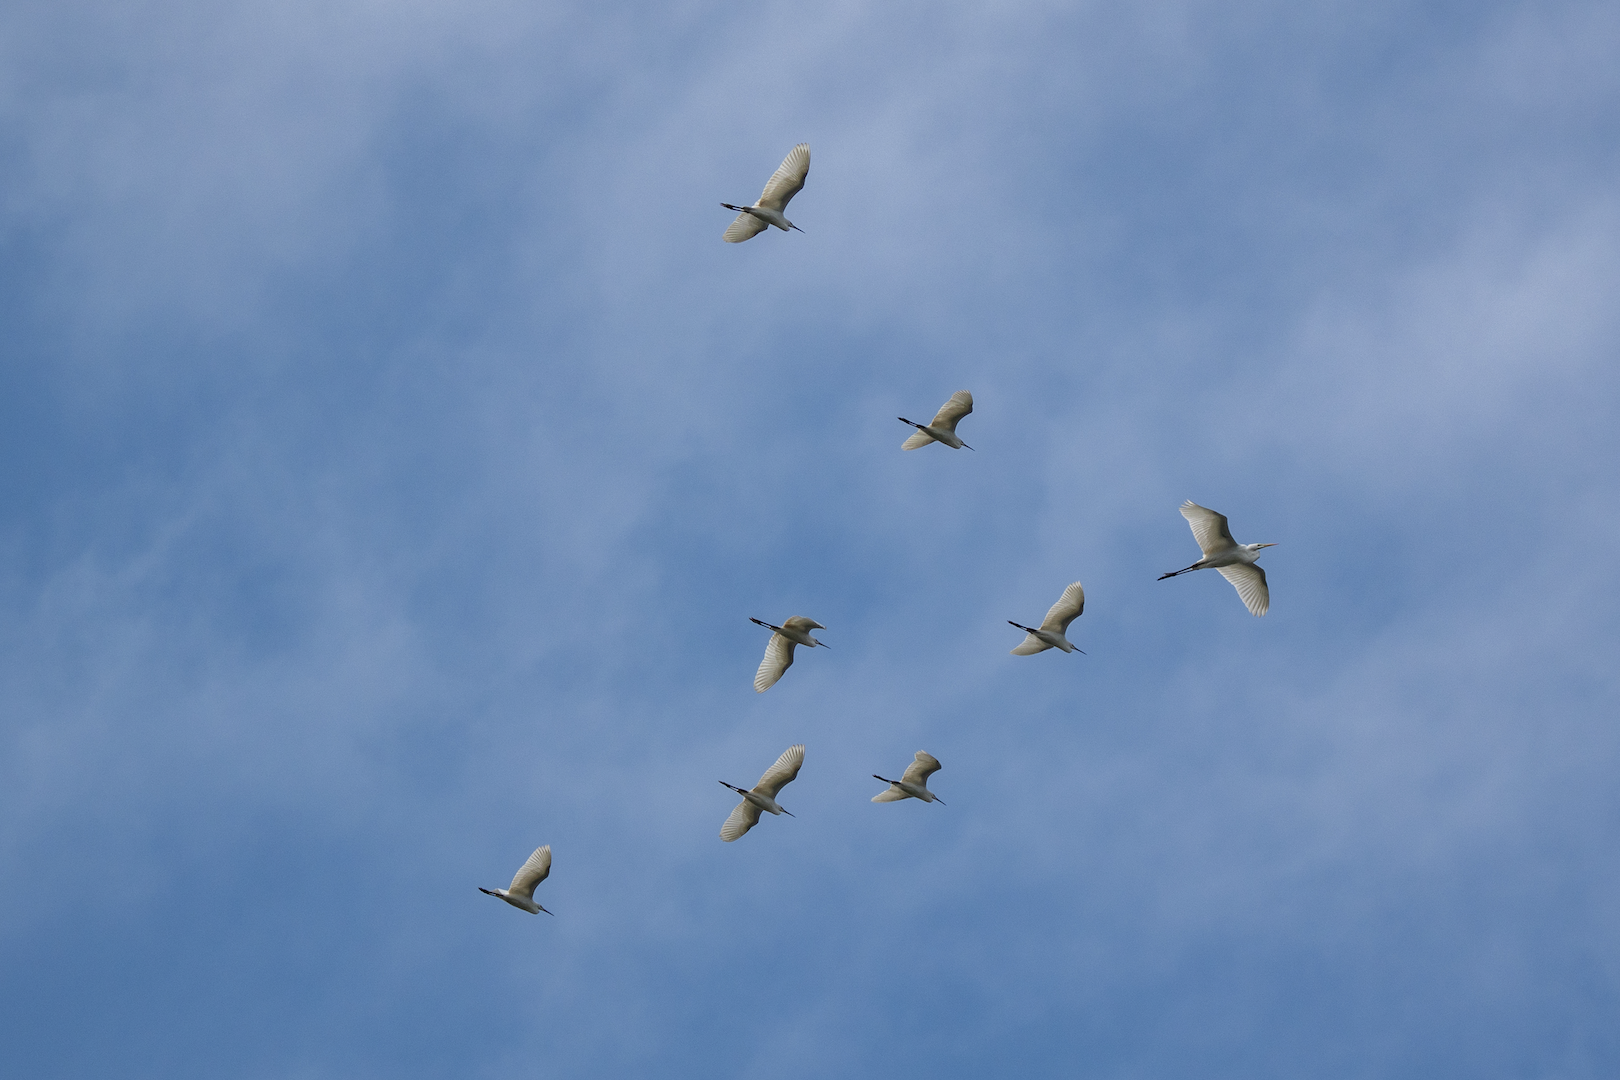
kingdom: Animalia
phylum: Chordata
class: Aves
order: Pelecaniformes
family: Ardeidae
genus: Egretta
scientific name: Egretta garzetta
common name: Little egret
